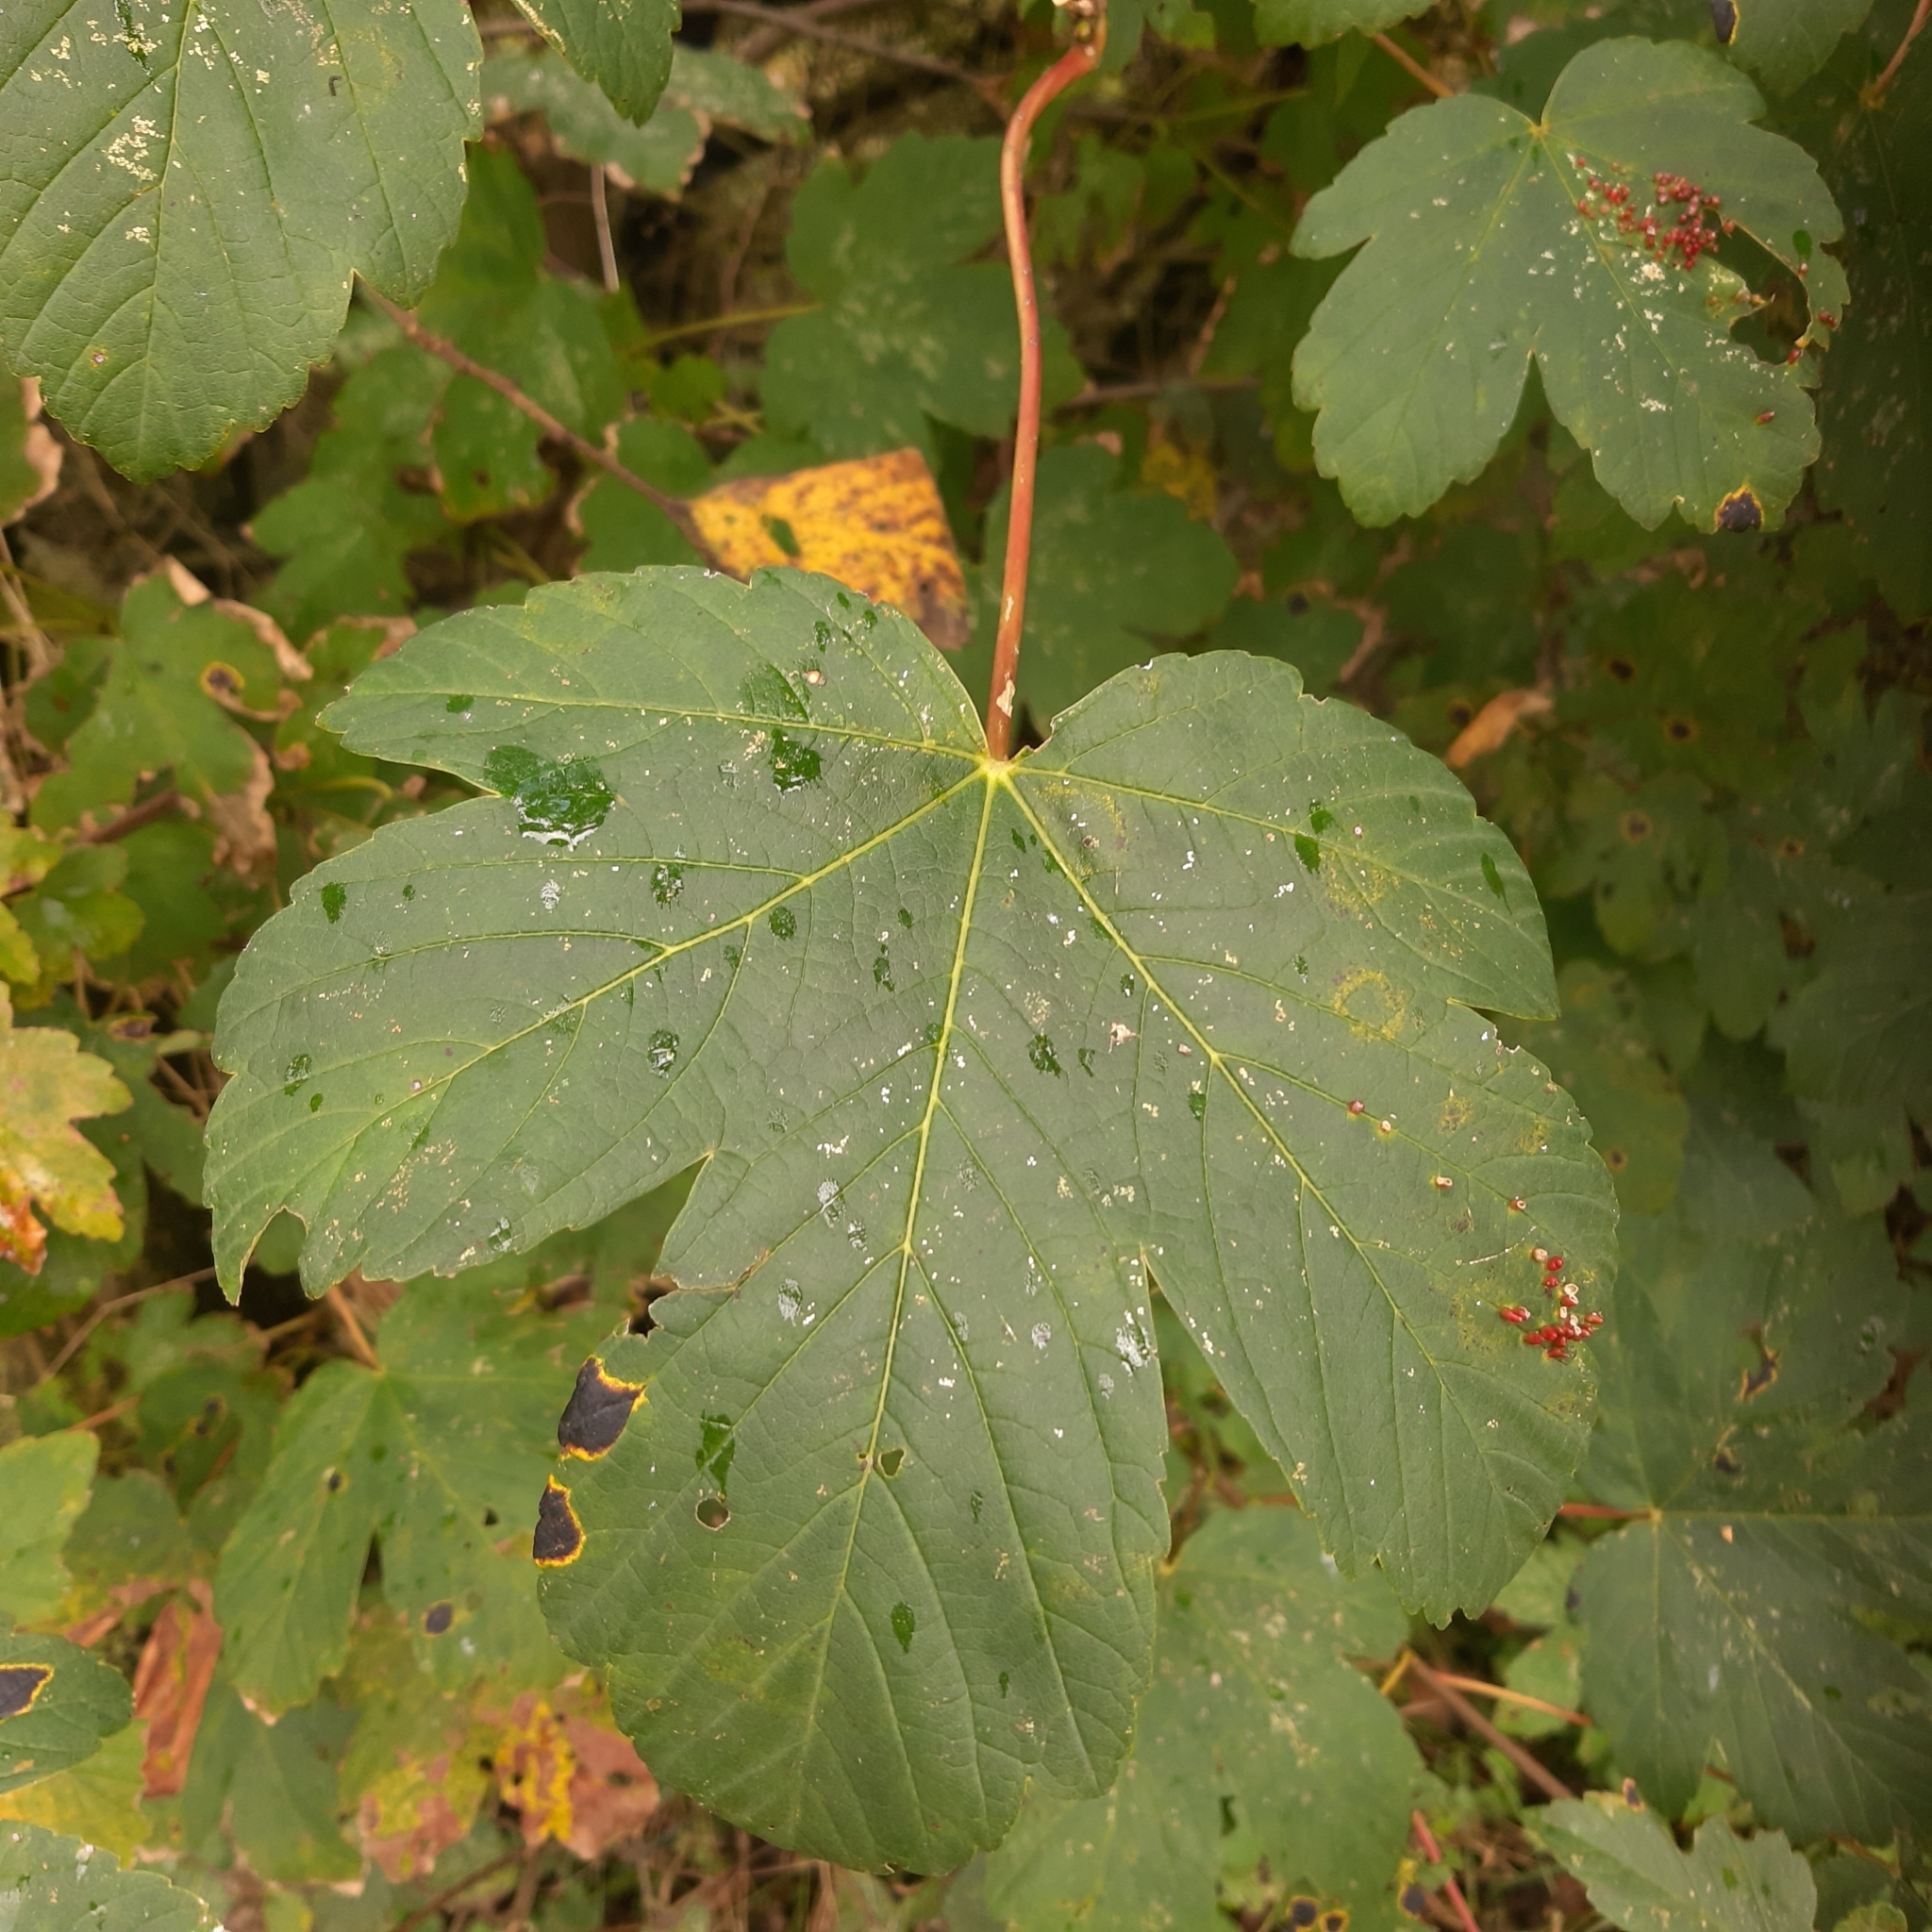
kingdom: Plantae
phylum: Tracheophyta
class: Magnoliopsida
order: Sapindales
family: Sapindaceae
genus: Acer
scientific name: Acer pseudoplatanus
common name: Sycamore
